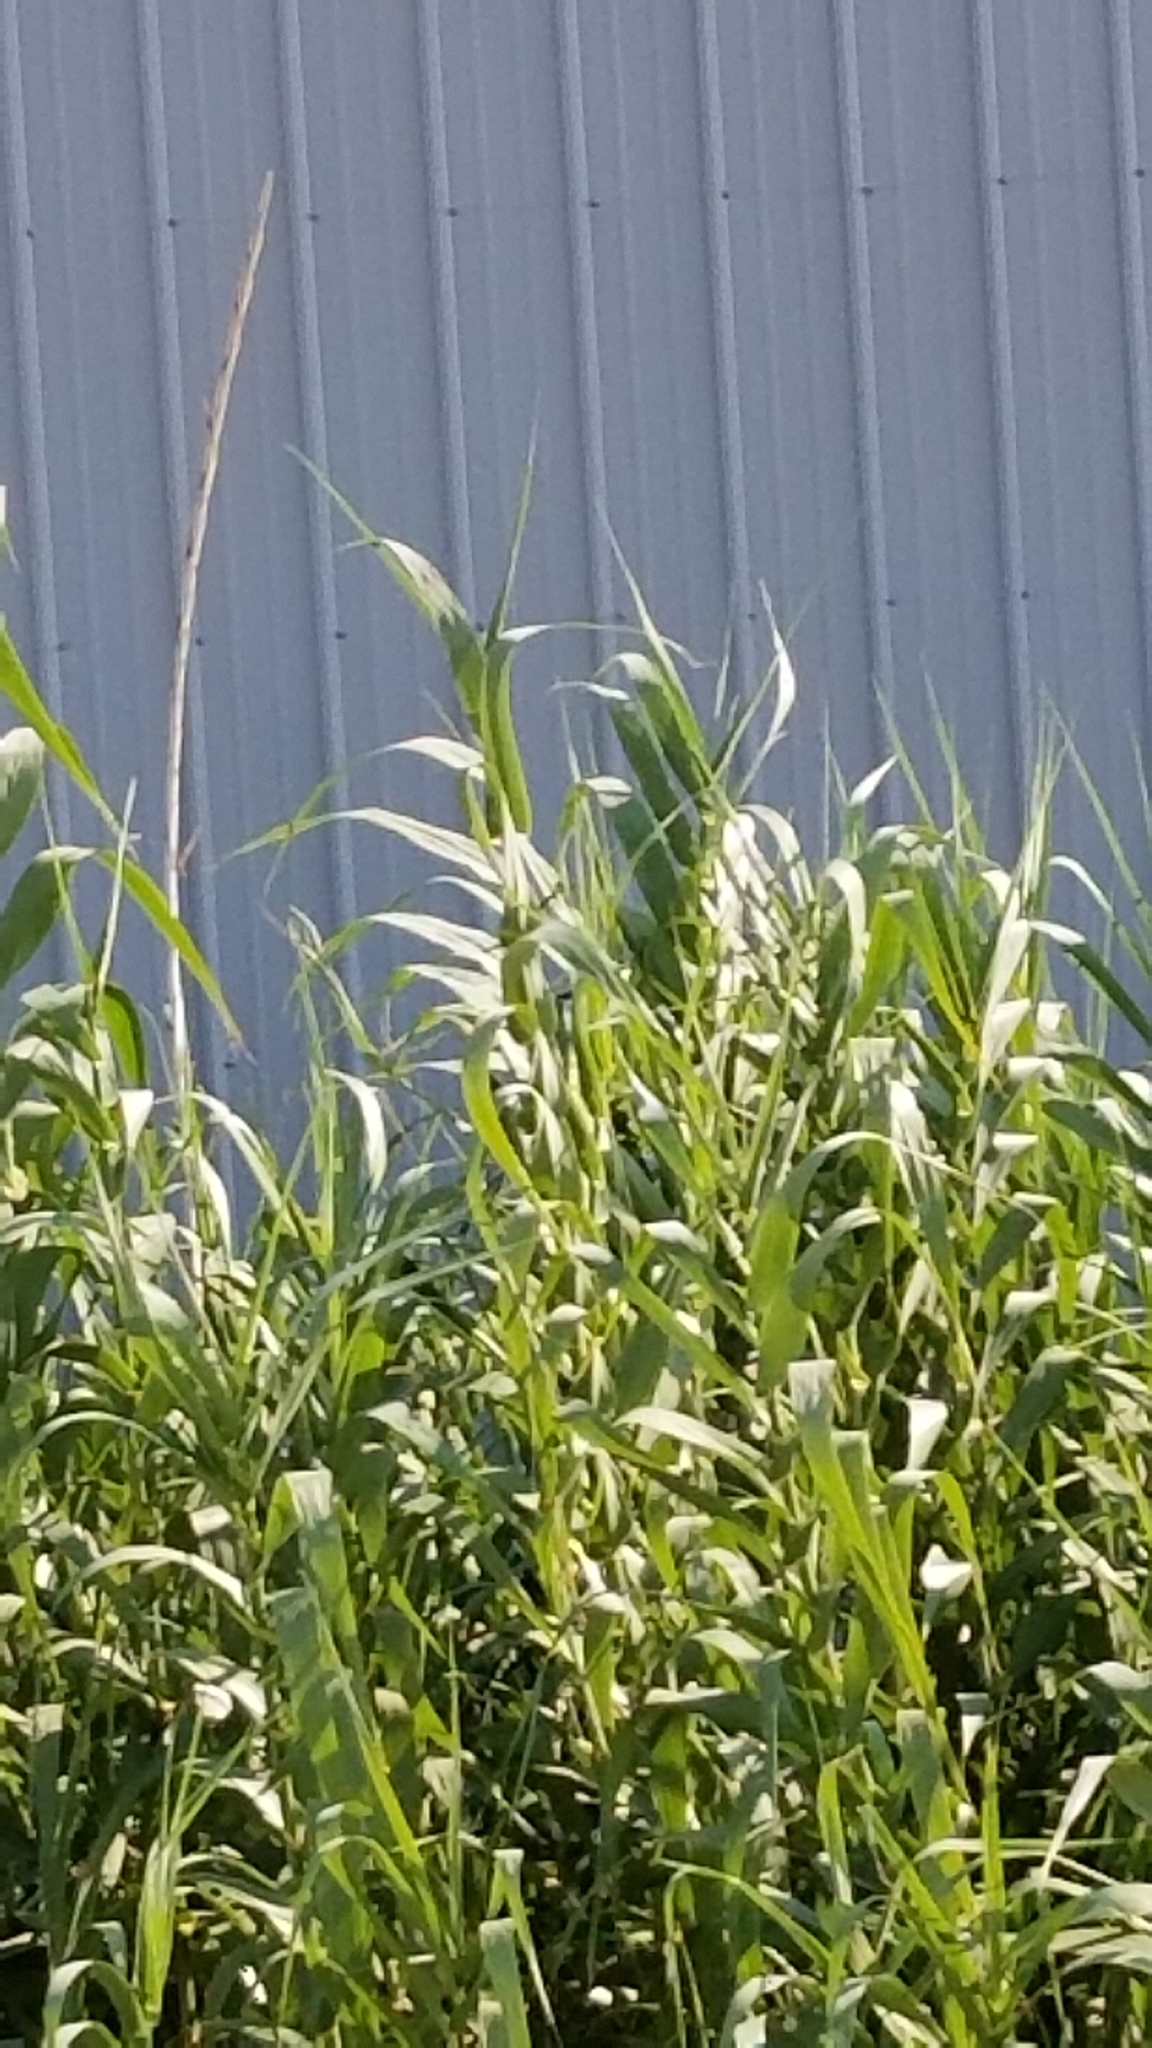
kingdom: Plantae
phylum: Tracheophyta
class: Liliopsida
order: Poales
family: Poaceae
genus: Arundo
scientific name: Arundo donax
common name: Giant reed
